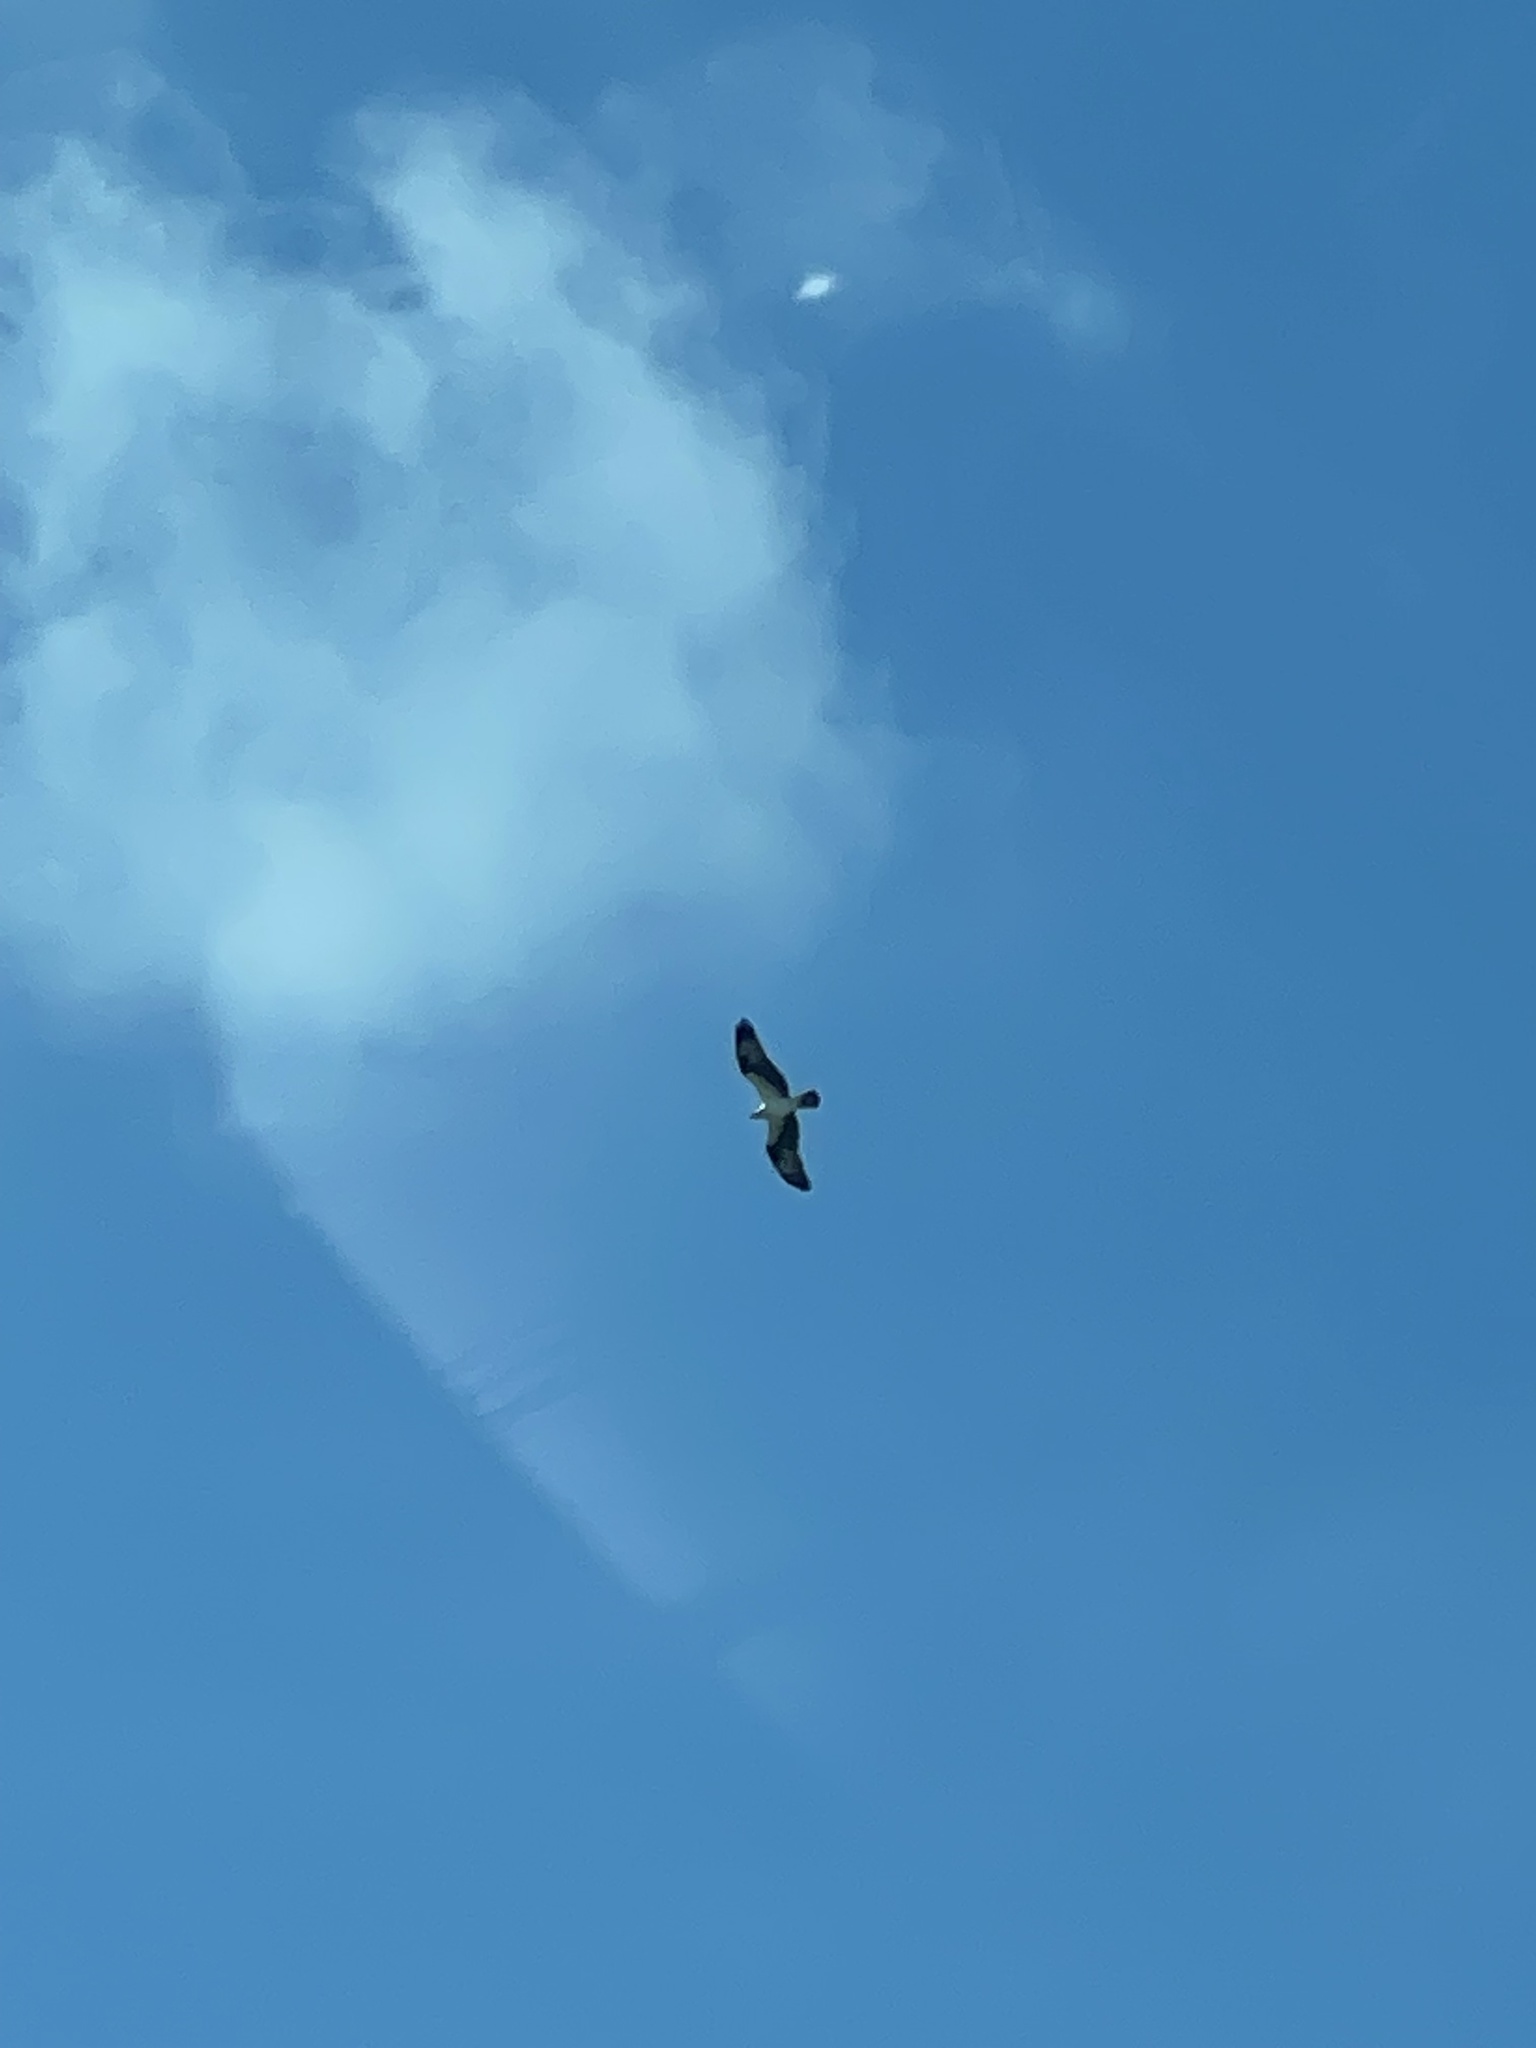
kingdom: Animalia
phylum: Chordata
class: Aves
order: Accipitriformes
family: Pandionidae
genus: Pandion
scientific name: Pandion haliaetus
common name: Osprey
